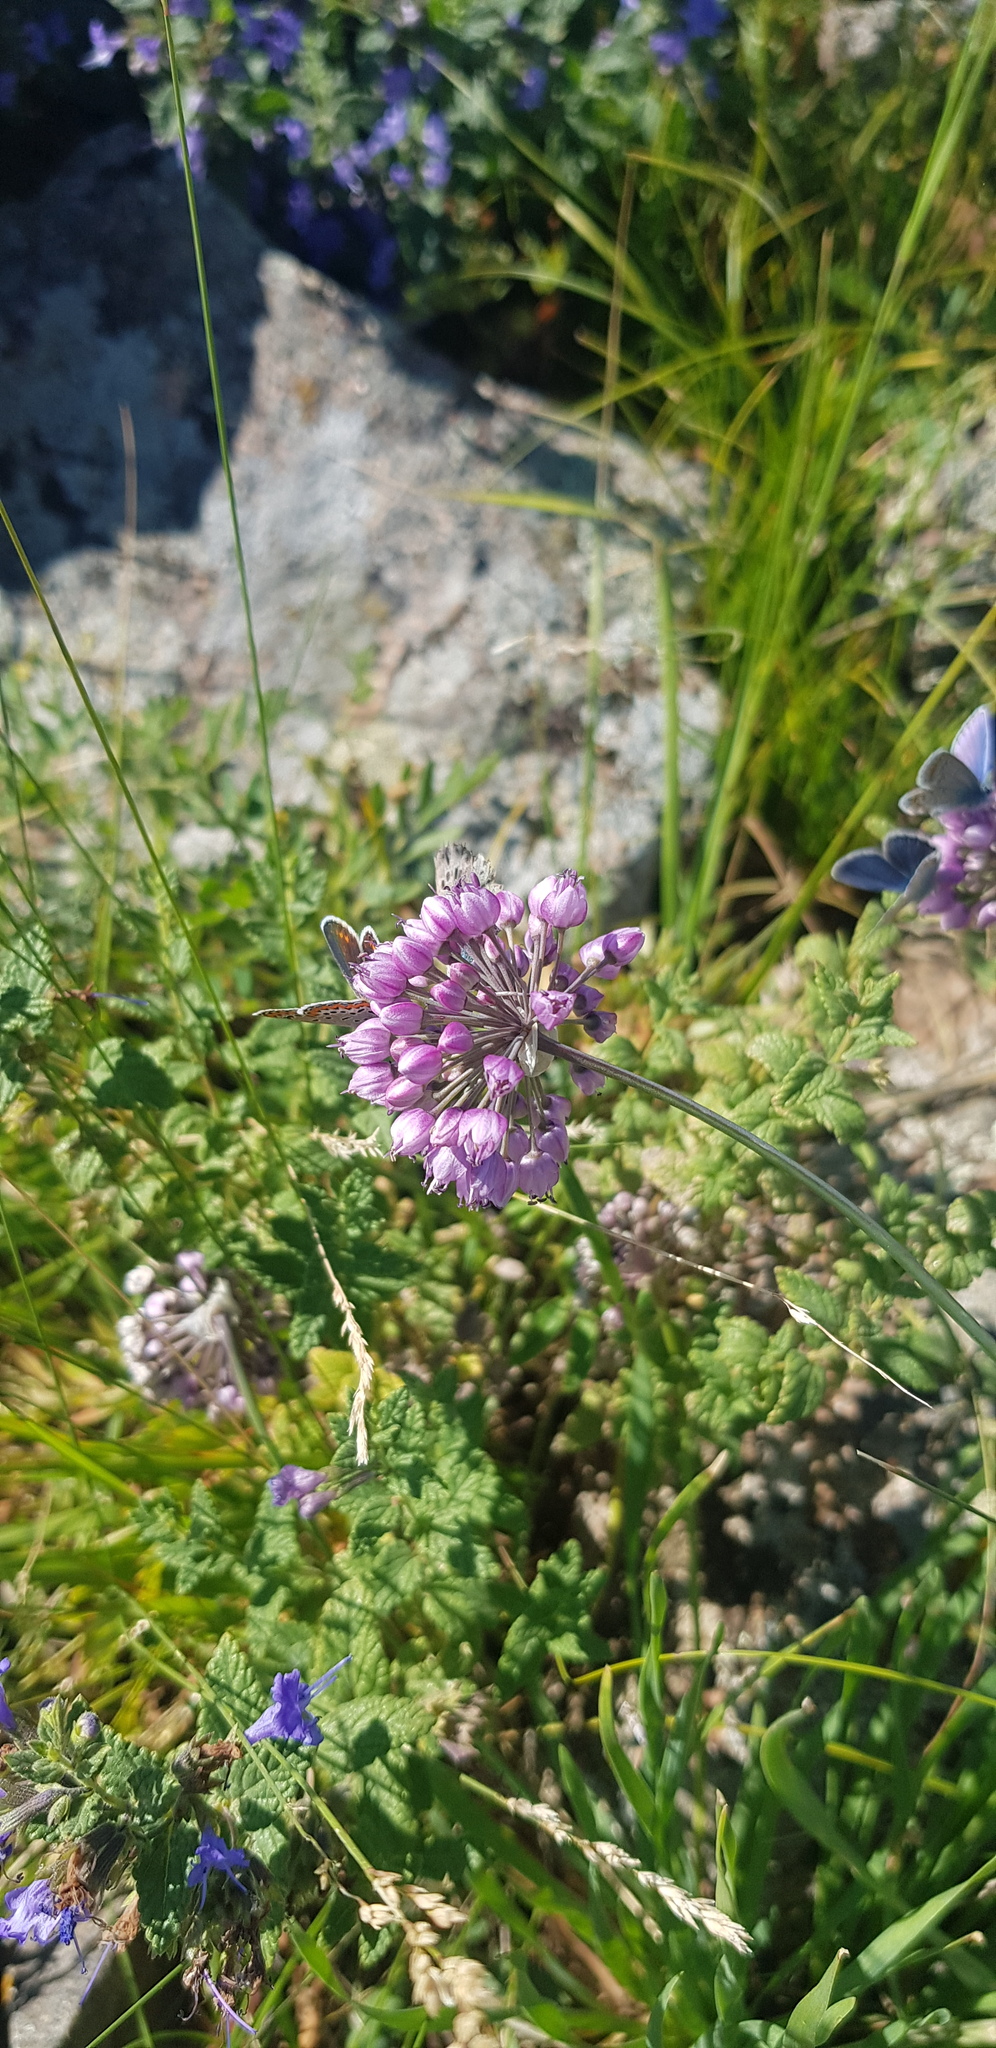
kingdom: Plantae
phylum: Tracheophyta
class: Liliopsida
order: Asparagales
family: Amaryllidaceae
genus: Allium
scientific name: Allium rubens
